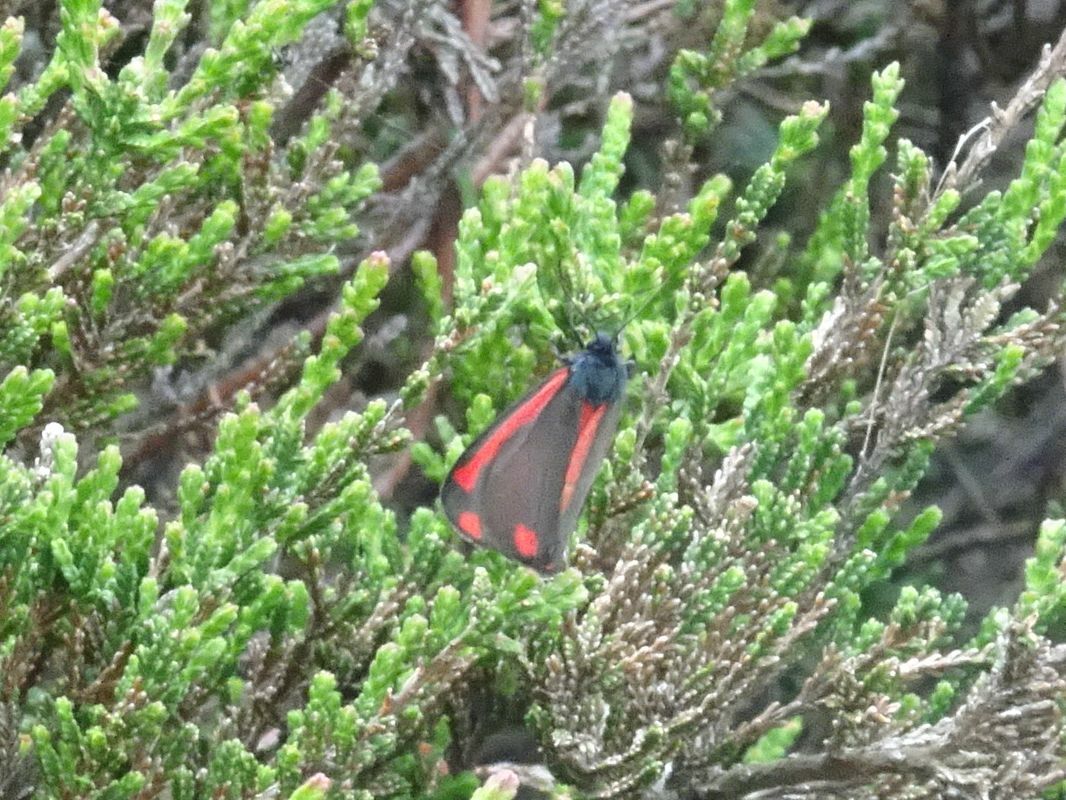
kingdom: Animalia
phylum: Arthropoda
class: Insecta
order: Lepidoptera
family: Erebidae
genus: Tyria
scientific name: Tyria jacobaeae
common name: Cinnabar
